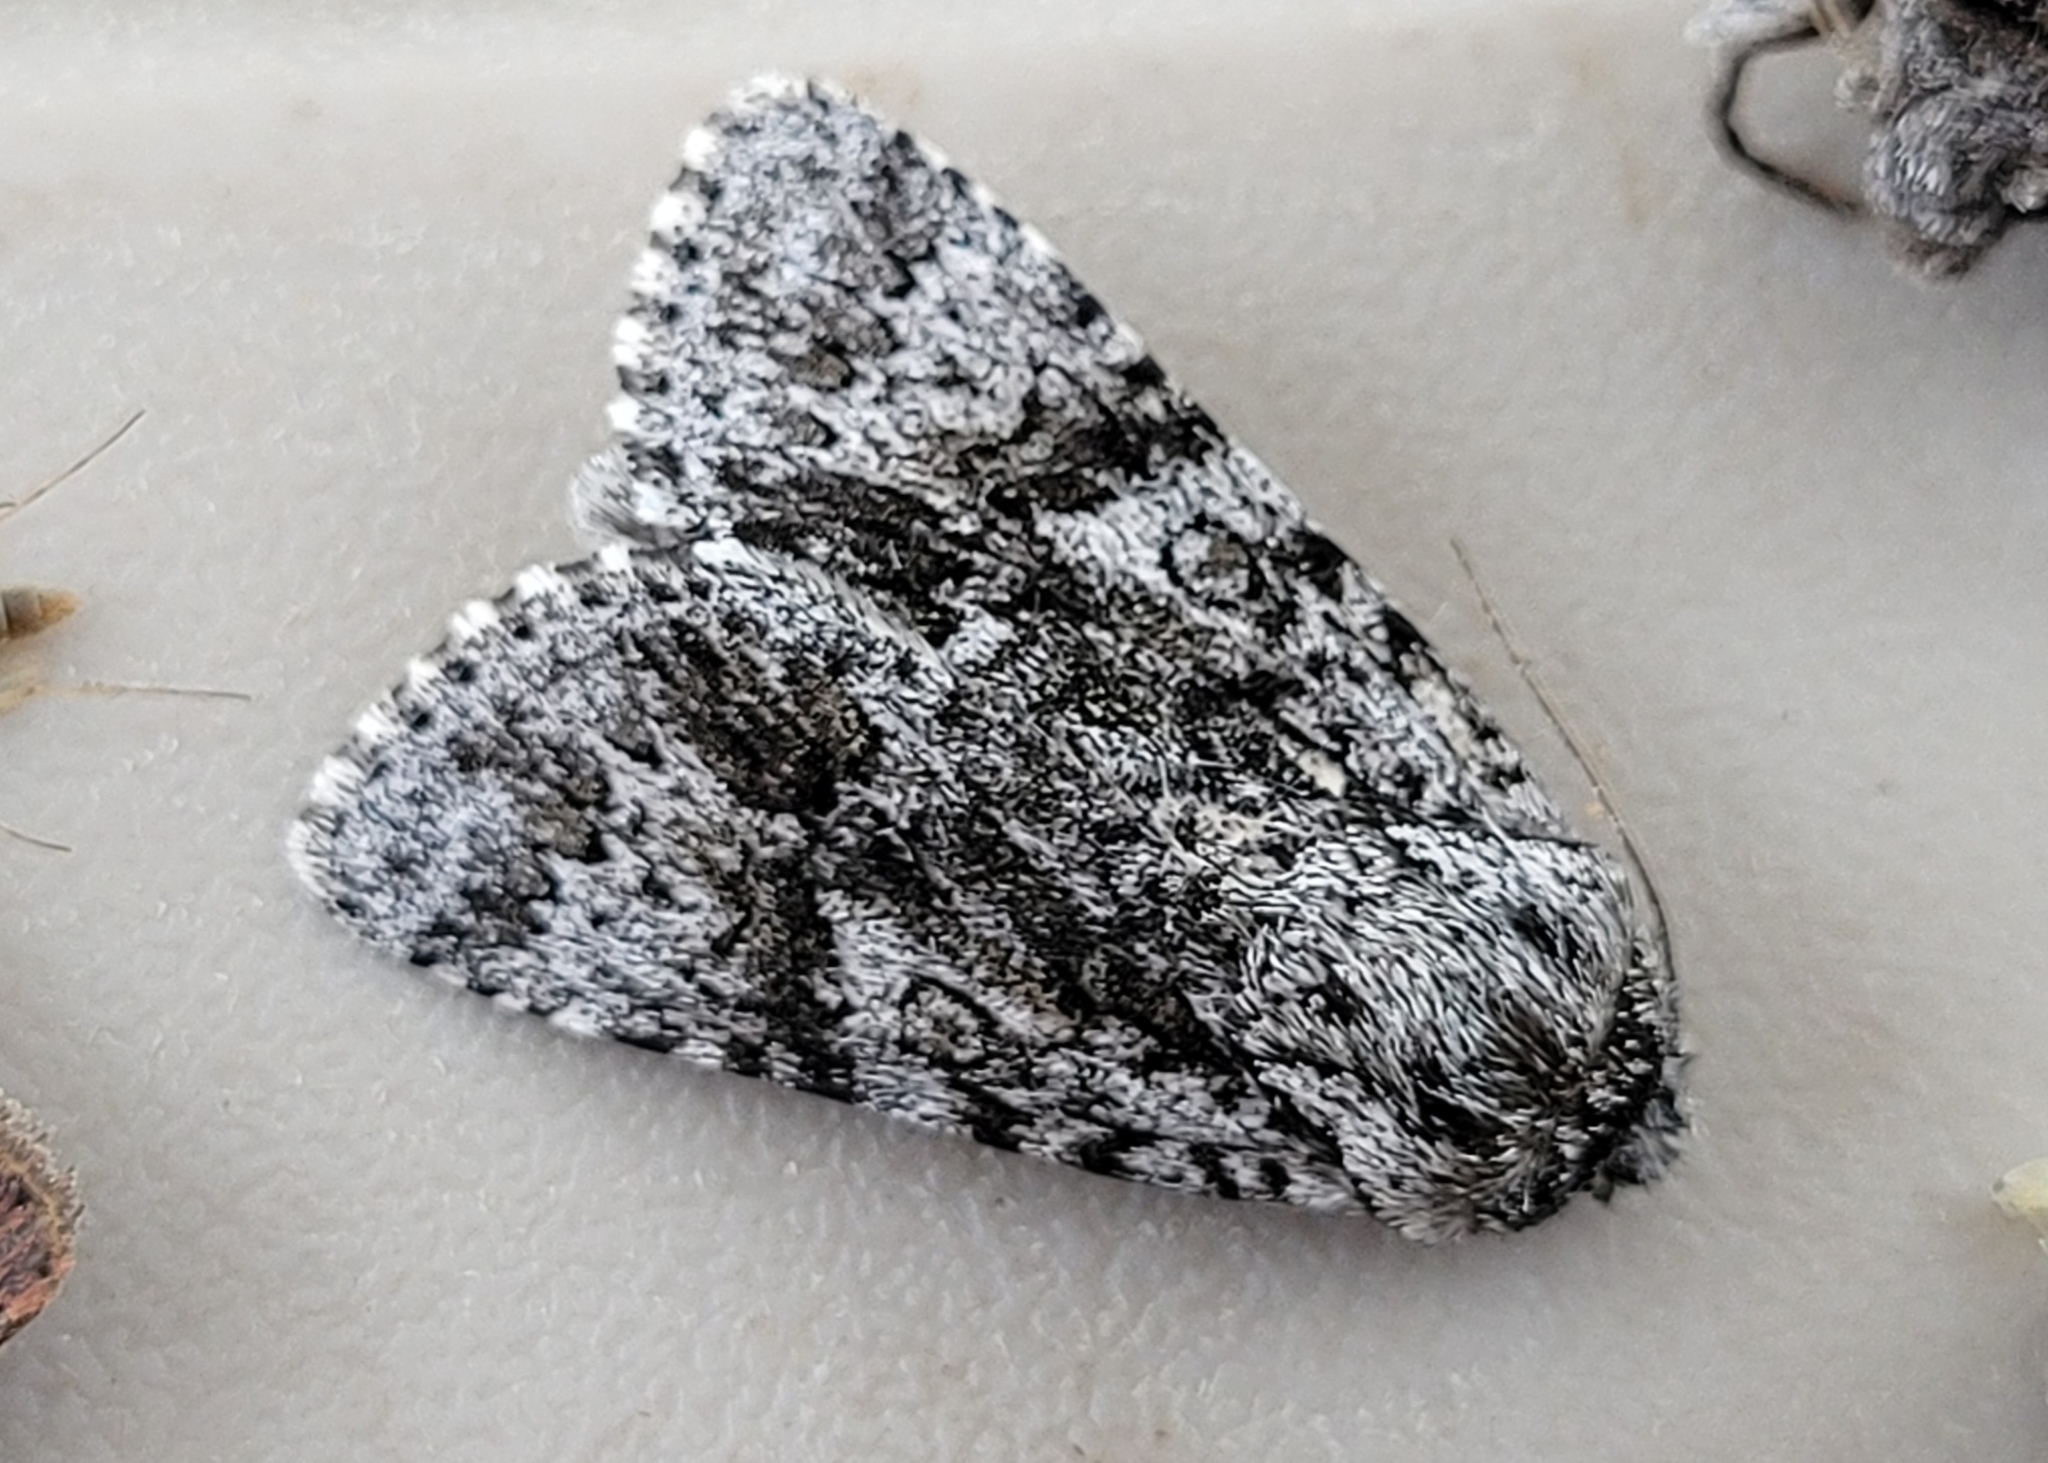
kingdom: Animalia
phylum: Arthropoda
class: Insecta
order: Lepidoptera
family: Noctuidae
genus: Acronicta
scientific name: Acronicta impressa
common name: Impressed dagger
